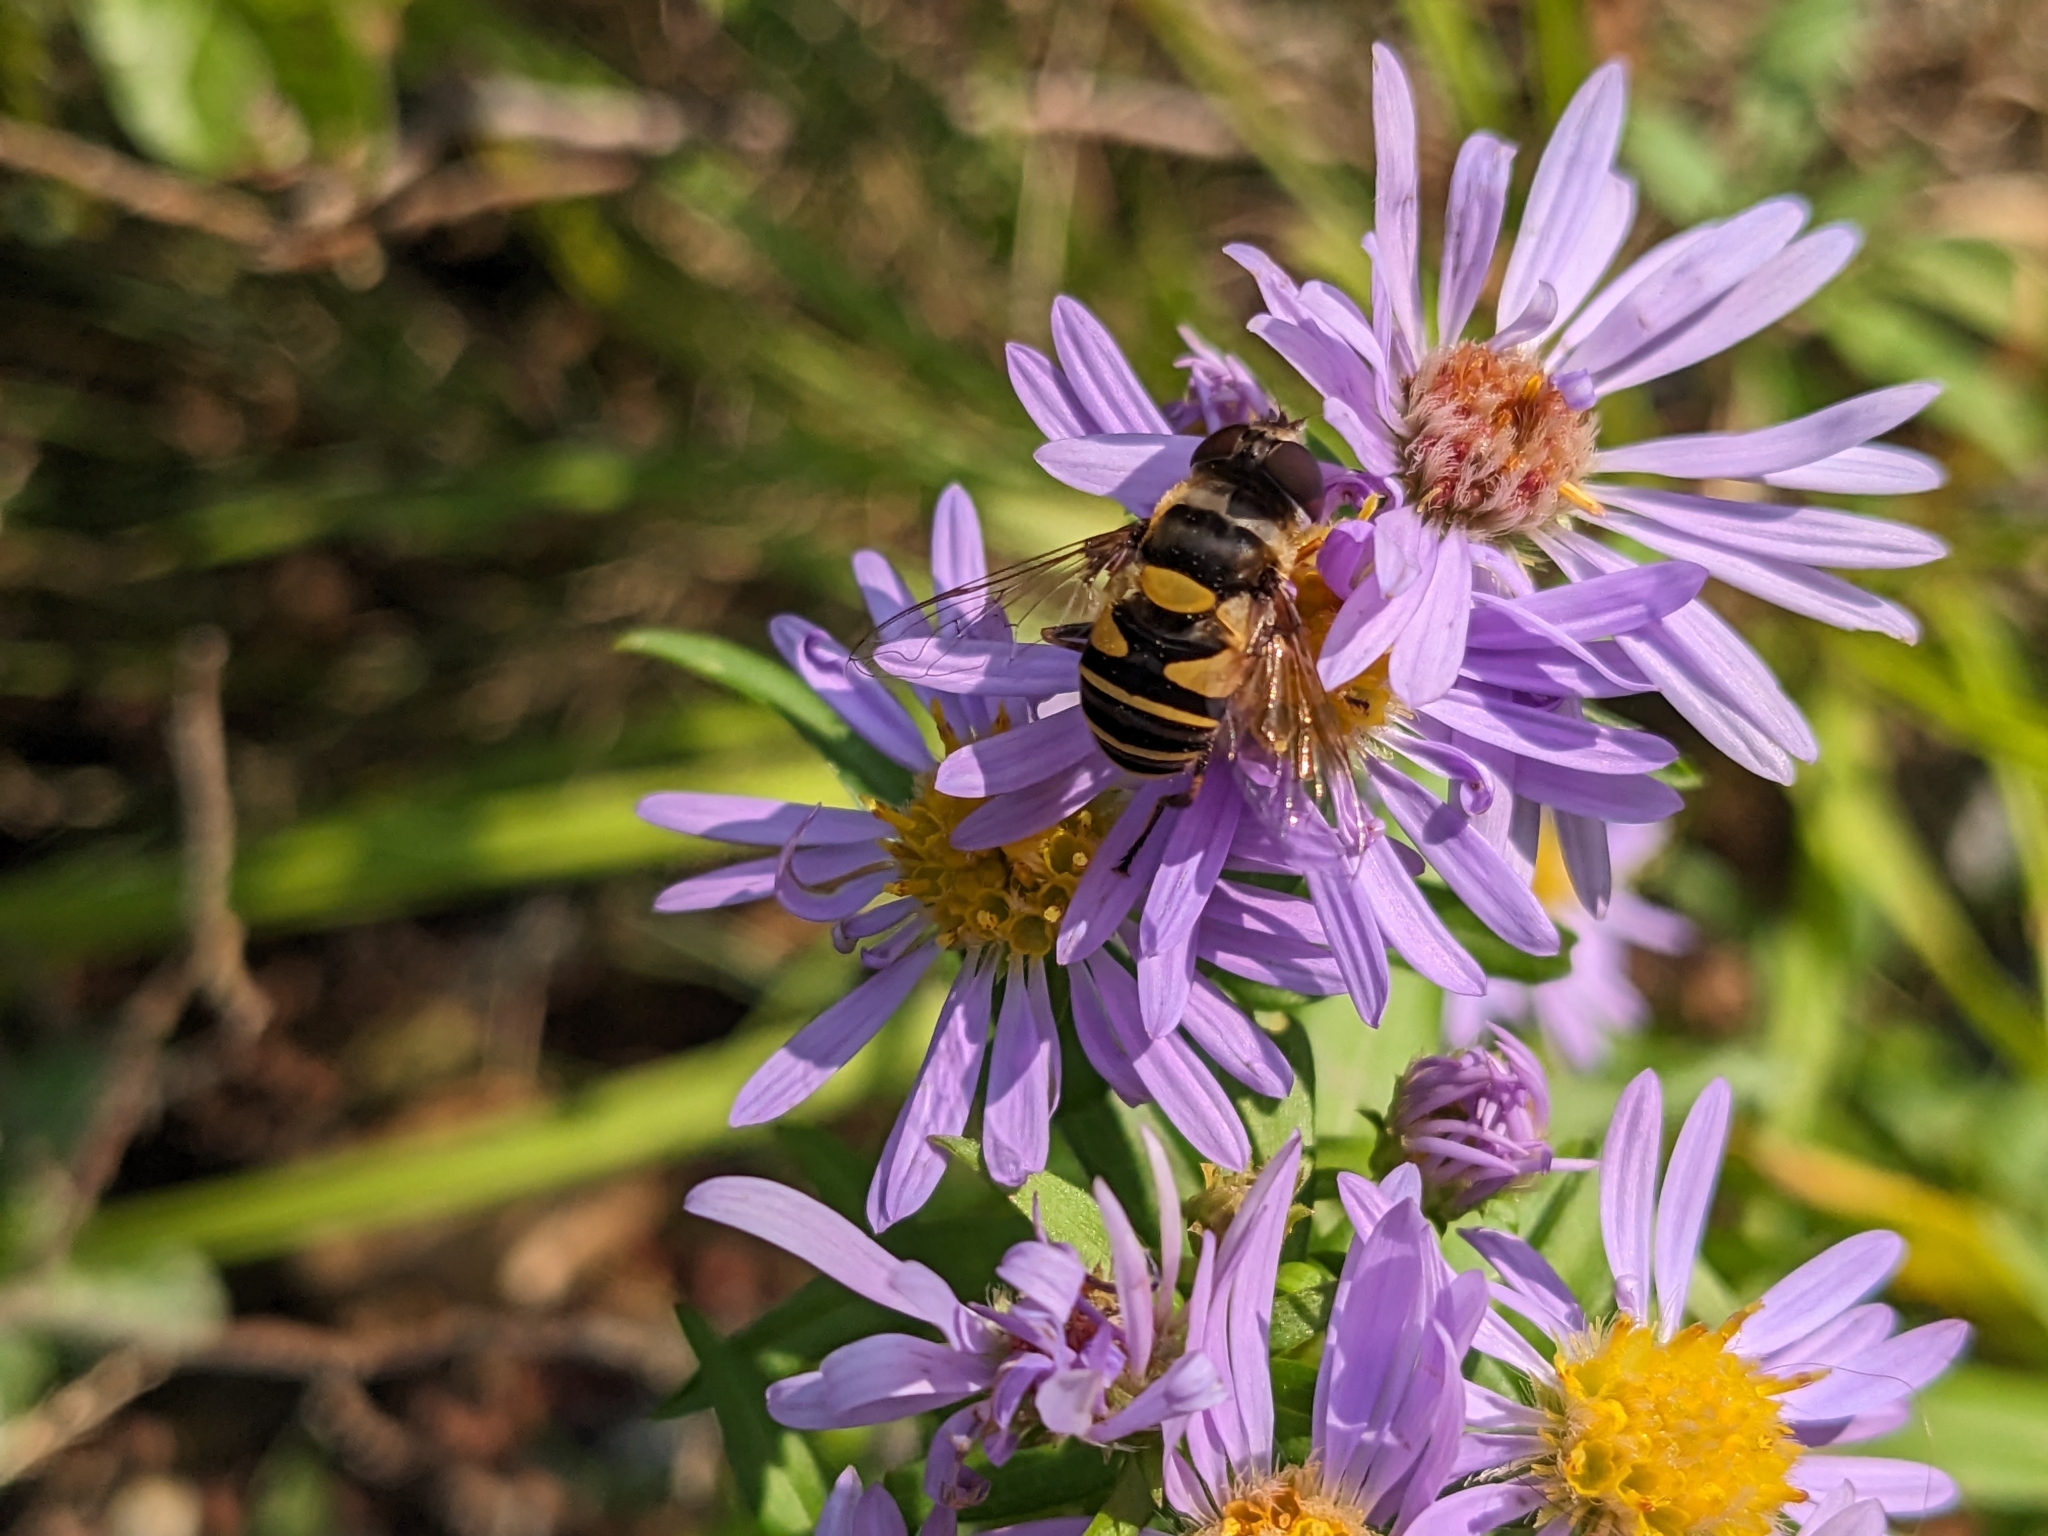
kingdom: Animalia
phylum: Arthropoda
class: Insecta
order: Diptera
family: Syrphidae
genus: Eristalis
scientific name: Eristalis transversa
